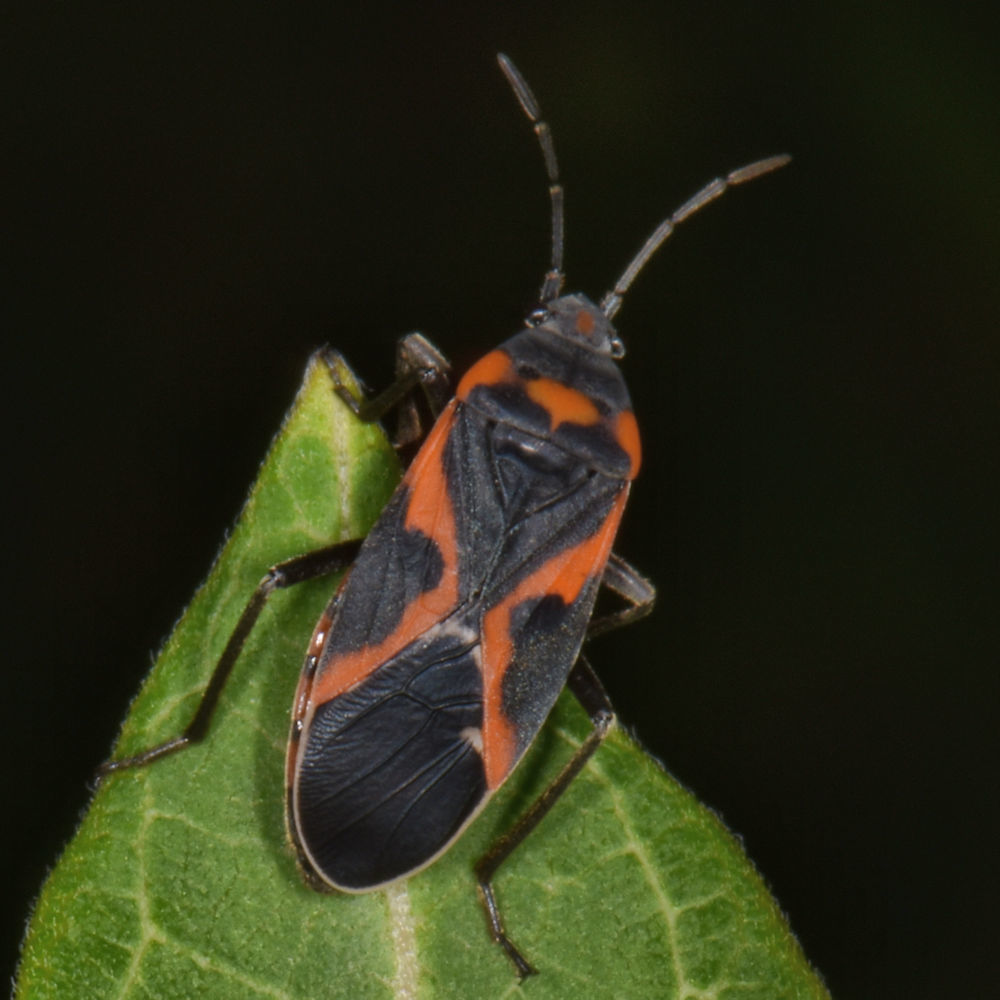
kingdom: Animalia
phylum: Arthropoda
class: Insecta
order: Hemiptera
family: Lygaeidae
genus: Lygaeus
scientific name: Lygaeus kalmii
